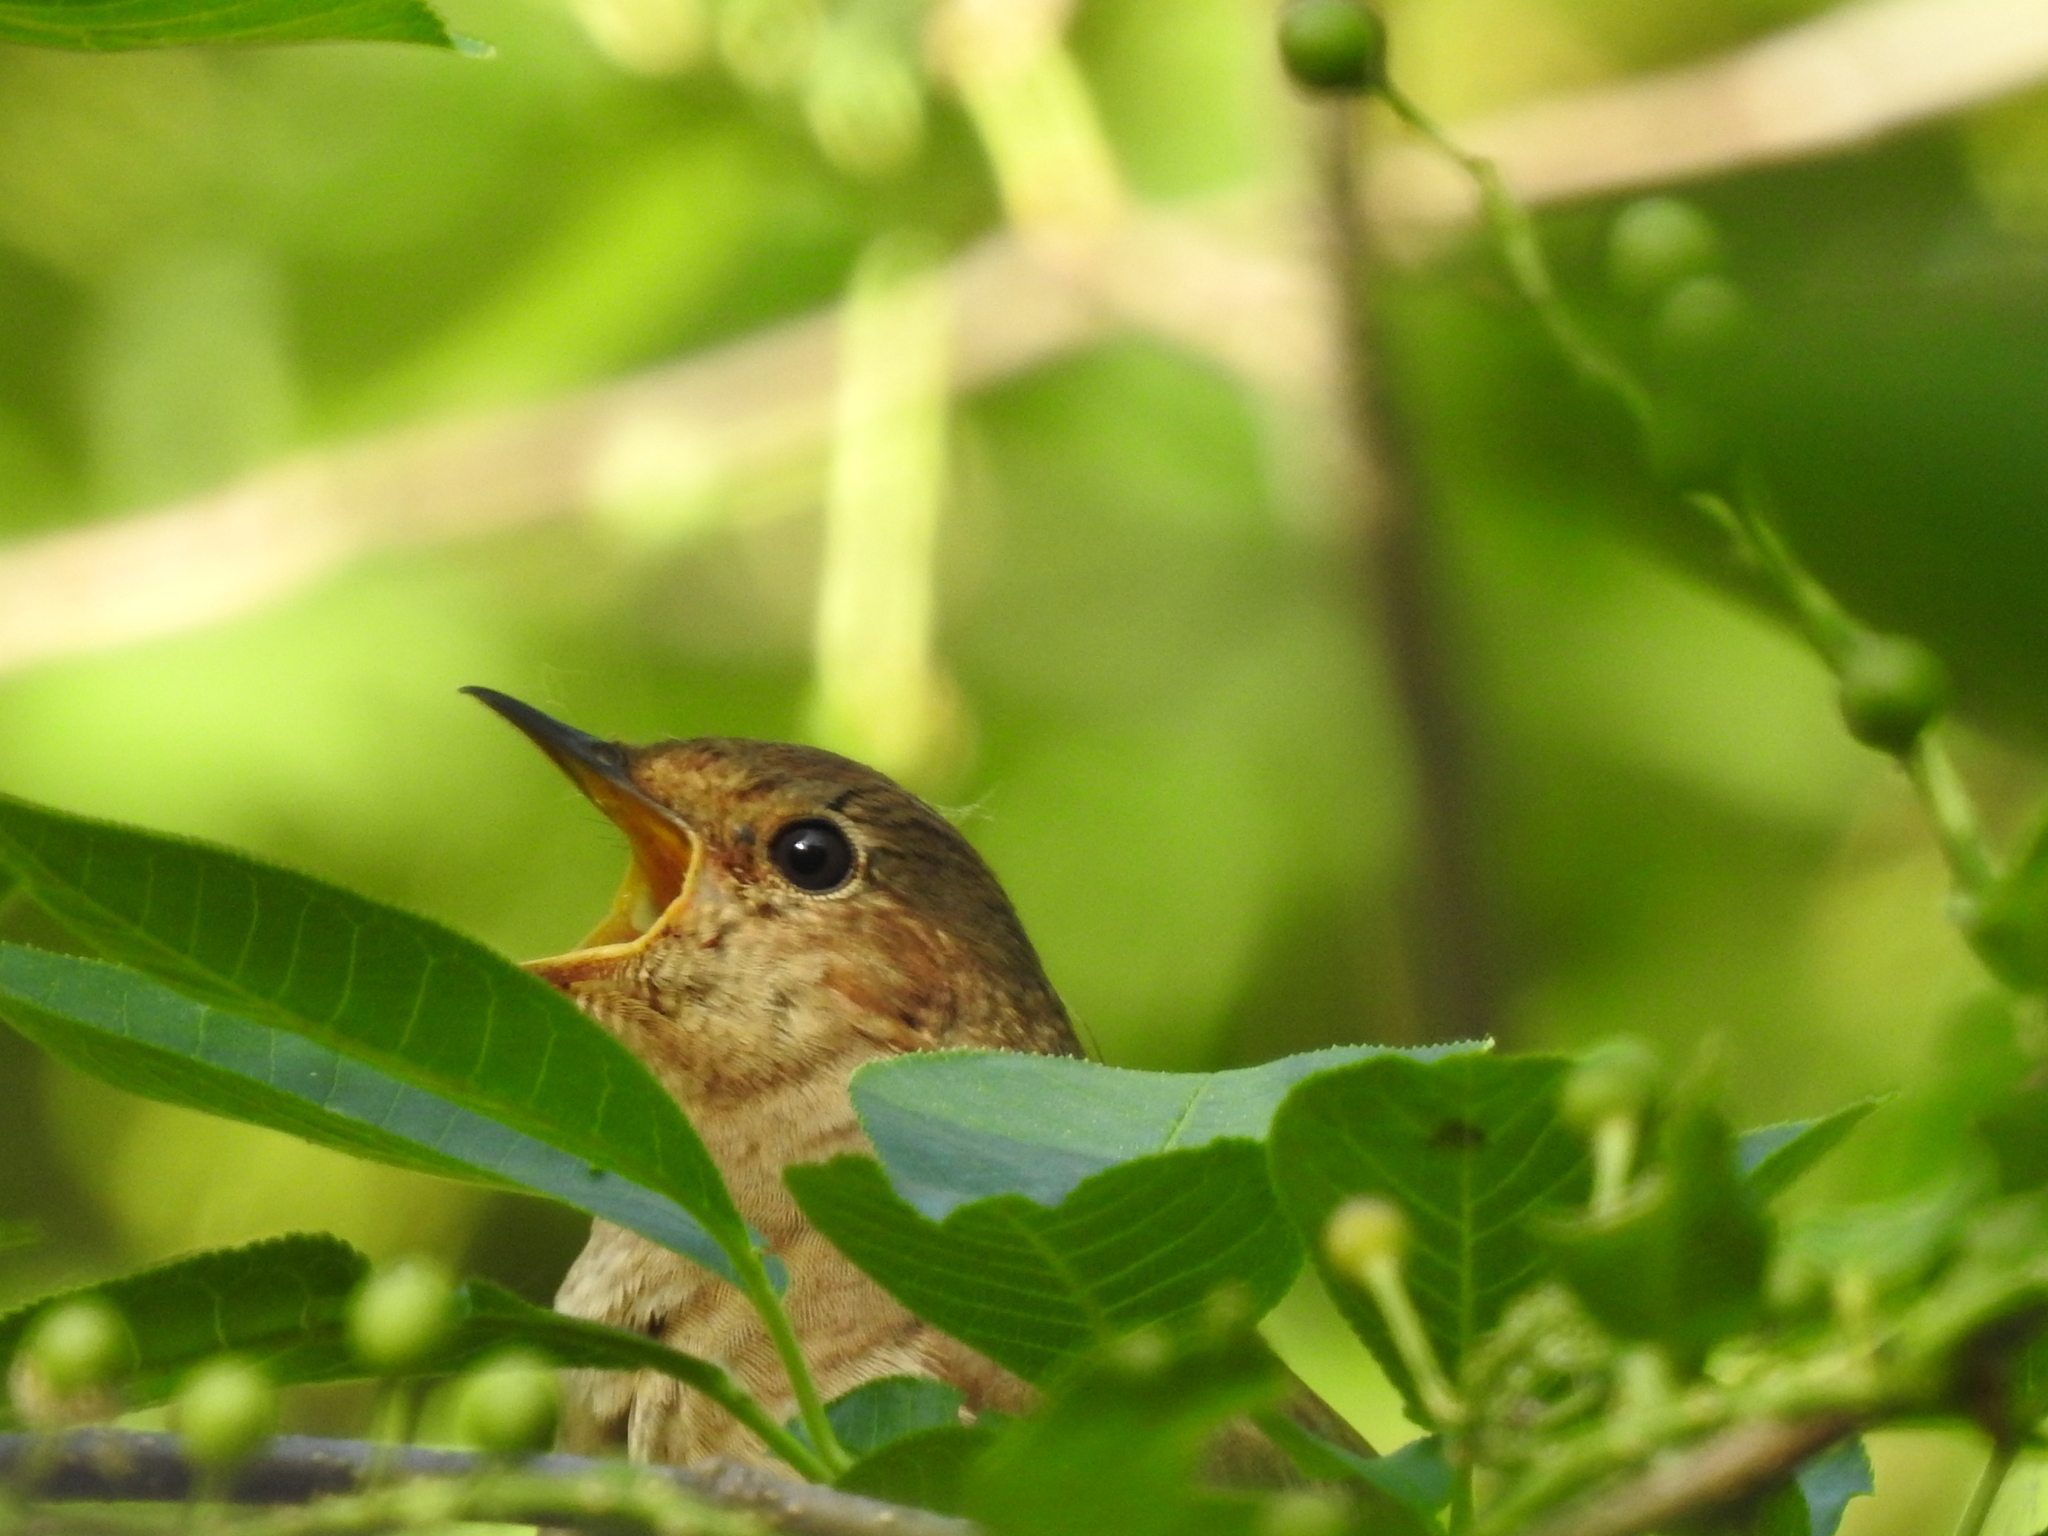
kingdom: Animalia
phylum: Chordata
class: Aves
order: Passeriformes
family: Muscicapidae
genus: Luscinia
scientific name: Luscinia luscinia
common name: Thrush nightingale
